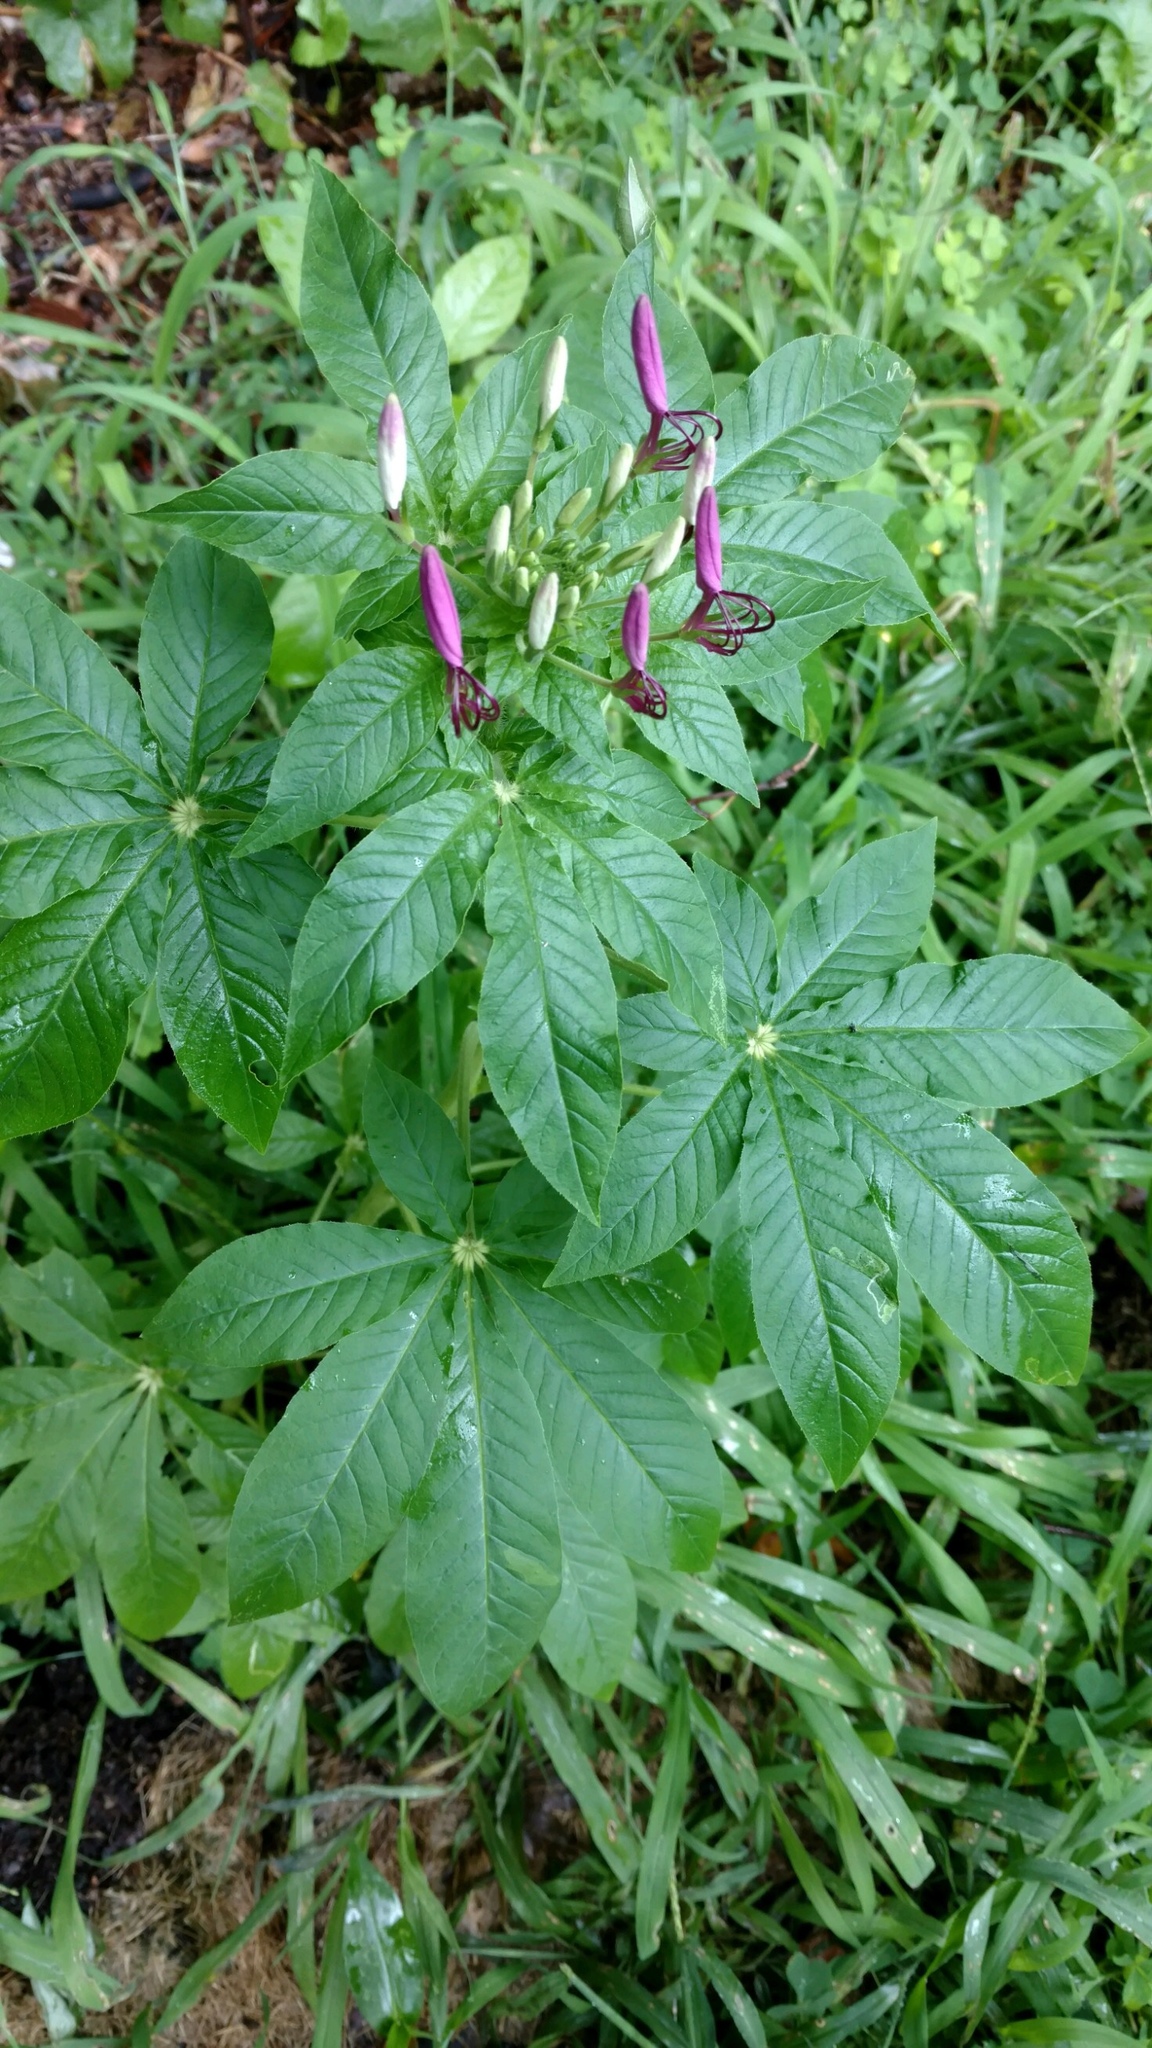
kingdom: Plantae
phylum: Tracheophyta
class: Magnoliopsida
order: Brassicales
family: Cleomaceae
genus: Tarenaya
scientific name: Tarenaya houtteana
